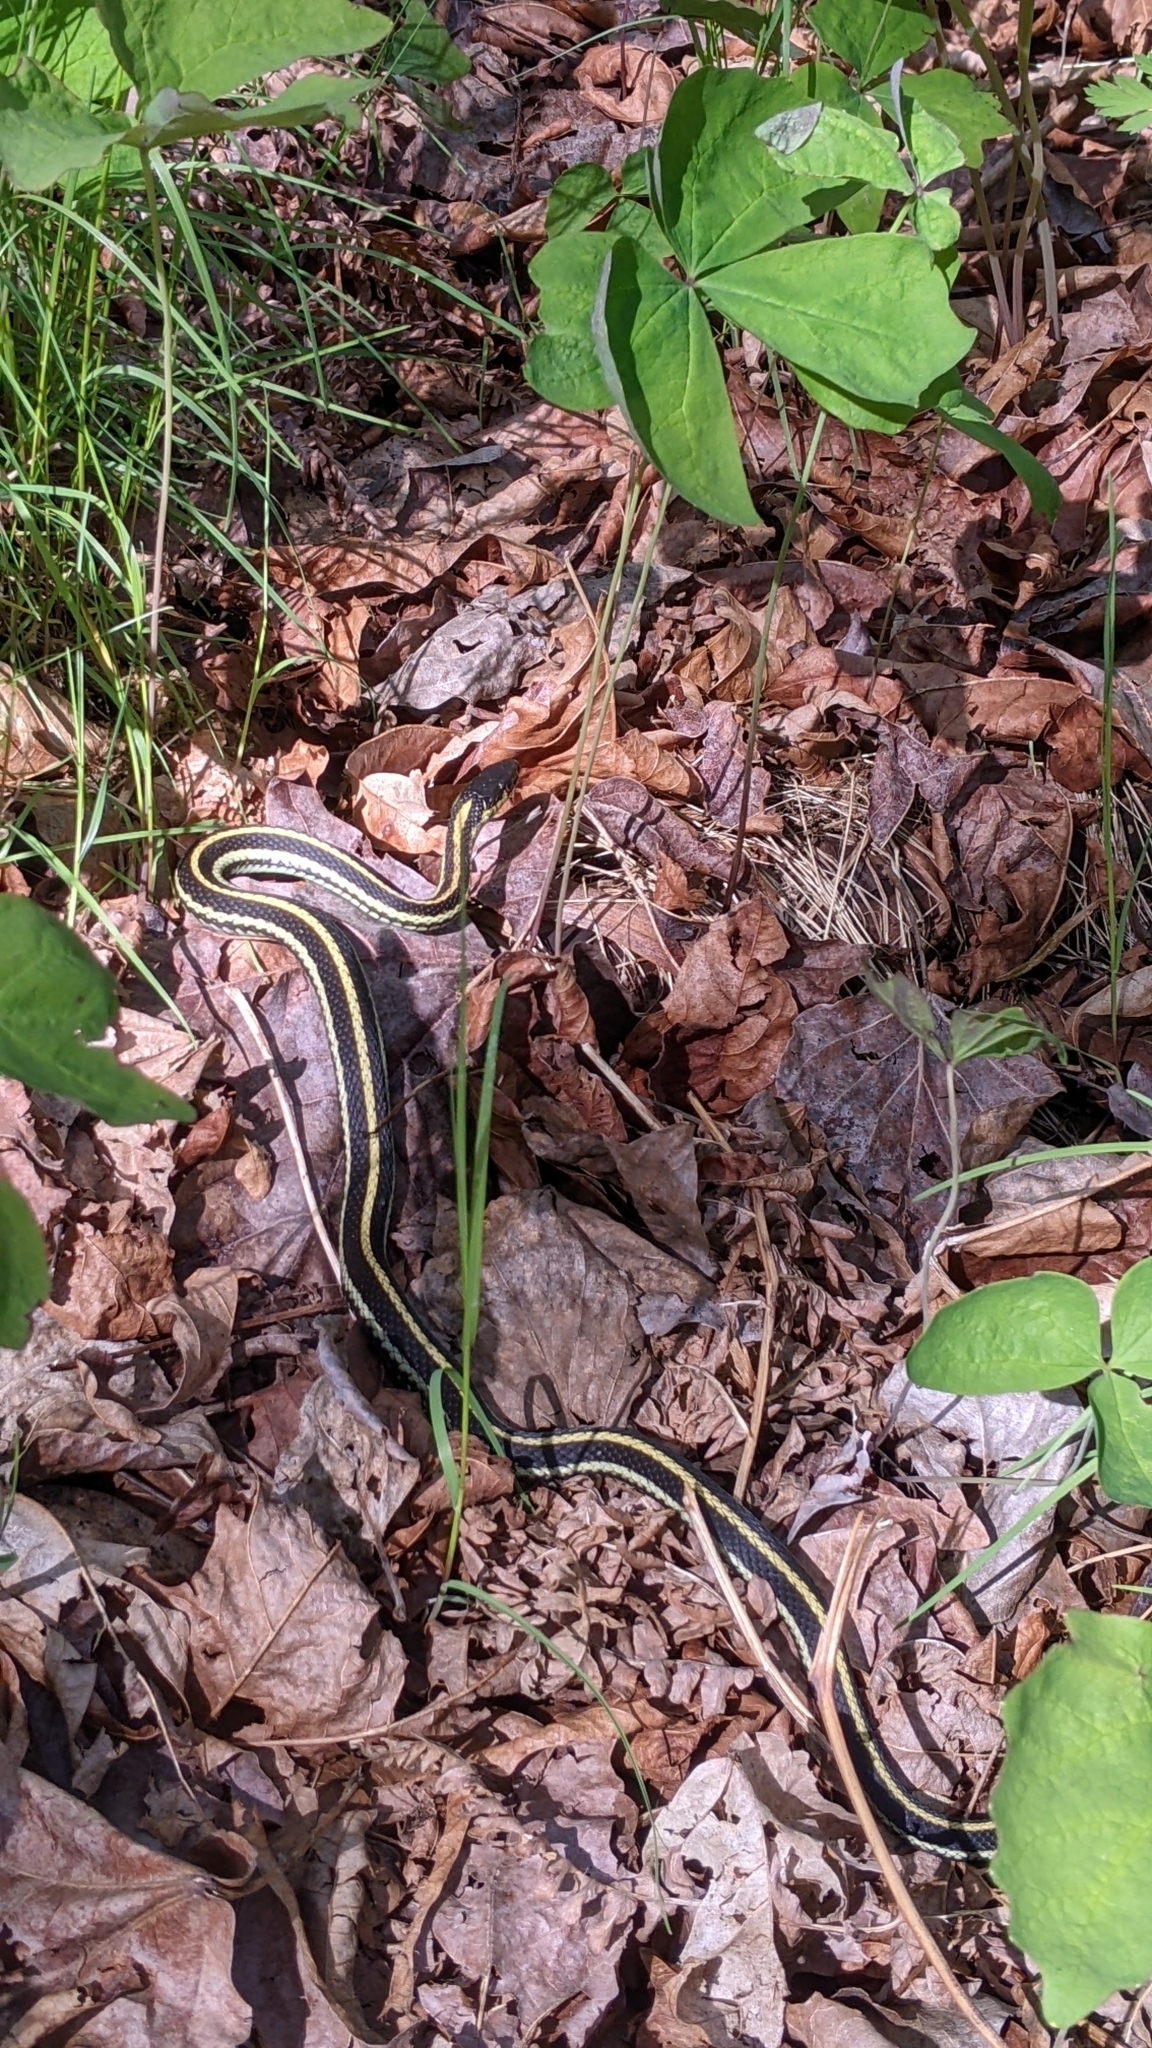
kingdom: Animalia
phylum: Chordata
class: Squamata
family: Colubridae
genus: Thamnophis
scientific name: Thamnophis sirtalis
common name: Common garter snake
